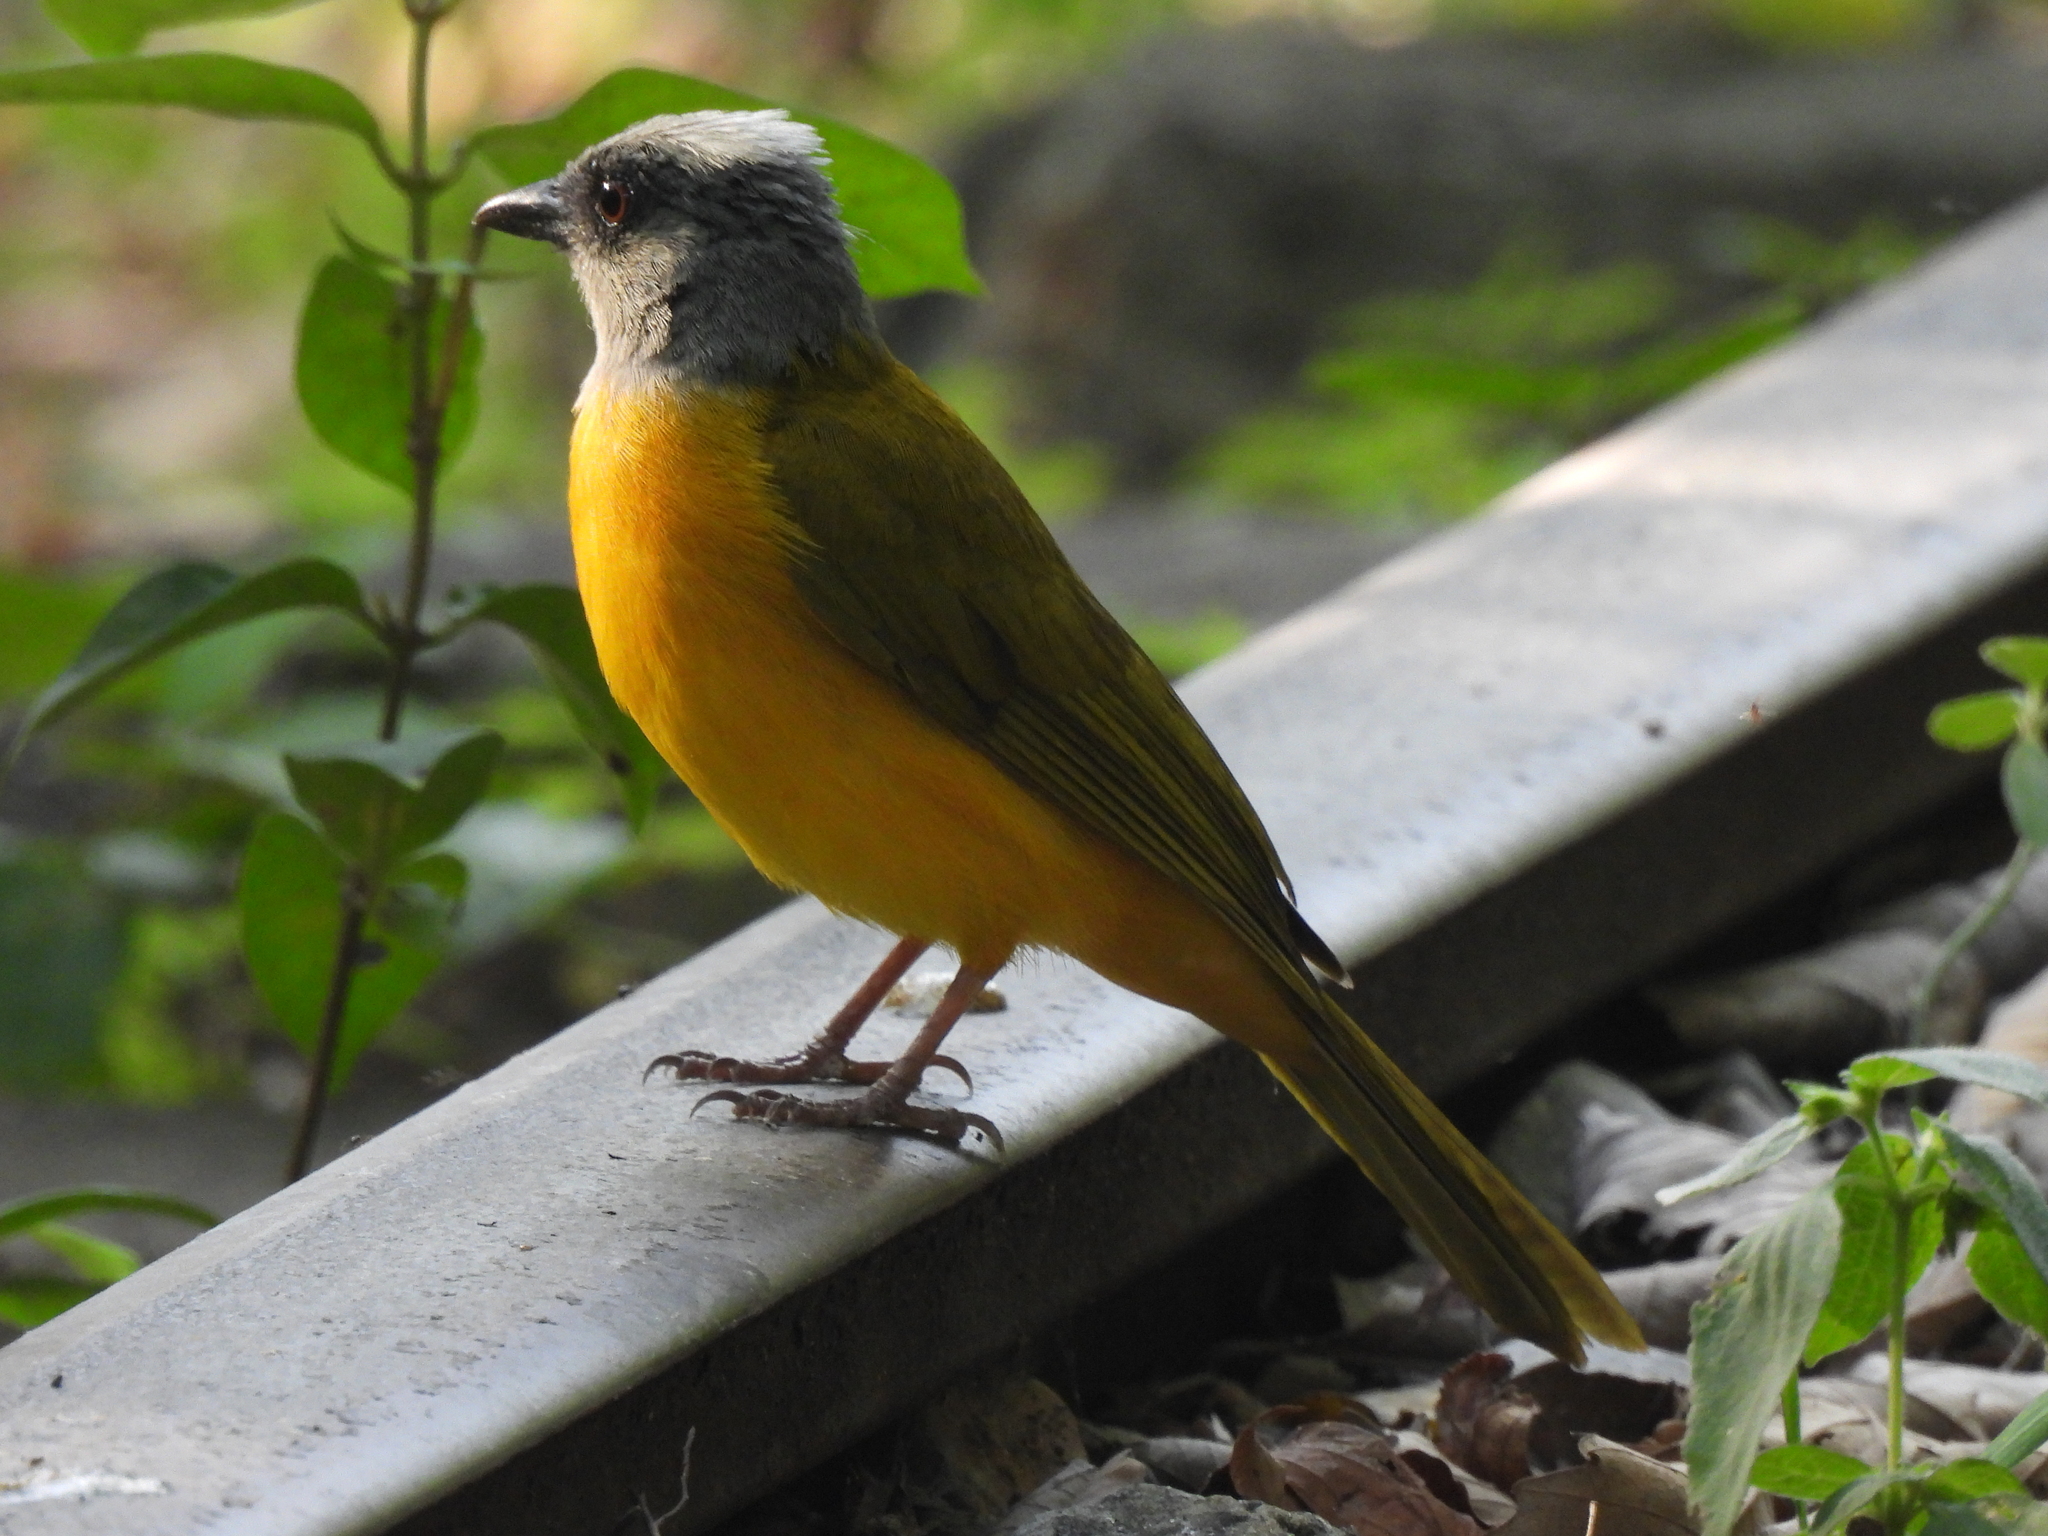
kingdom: Animalia
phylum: Chordata
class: Aves
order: Passeriformes
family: Thraupidae
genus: Eucometis
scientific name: Eucometis penicillata
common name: Grey-headed tanager
